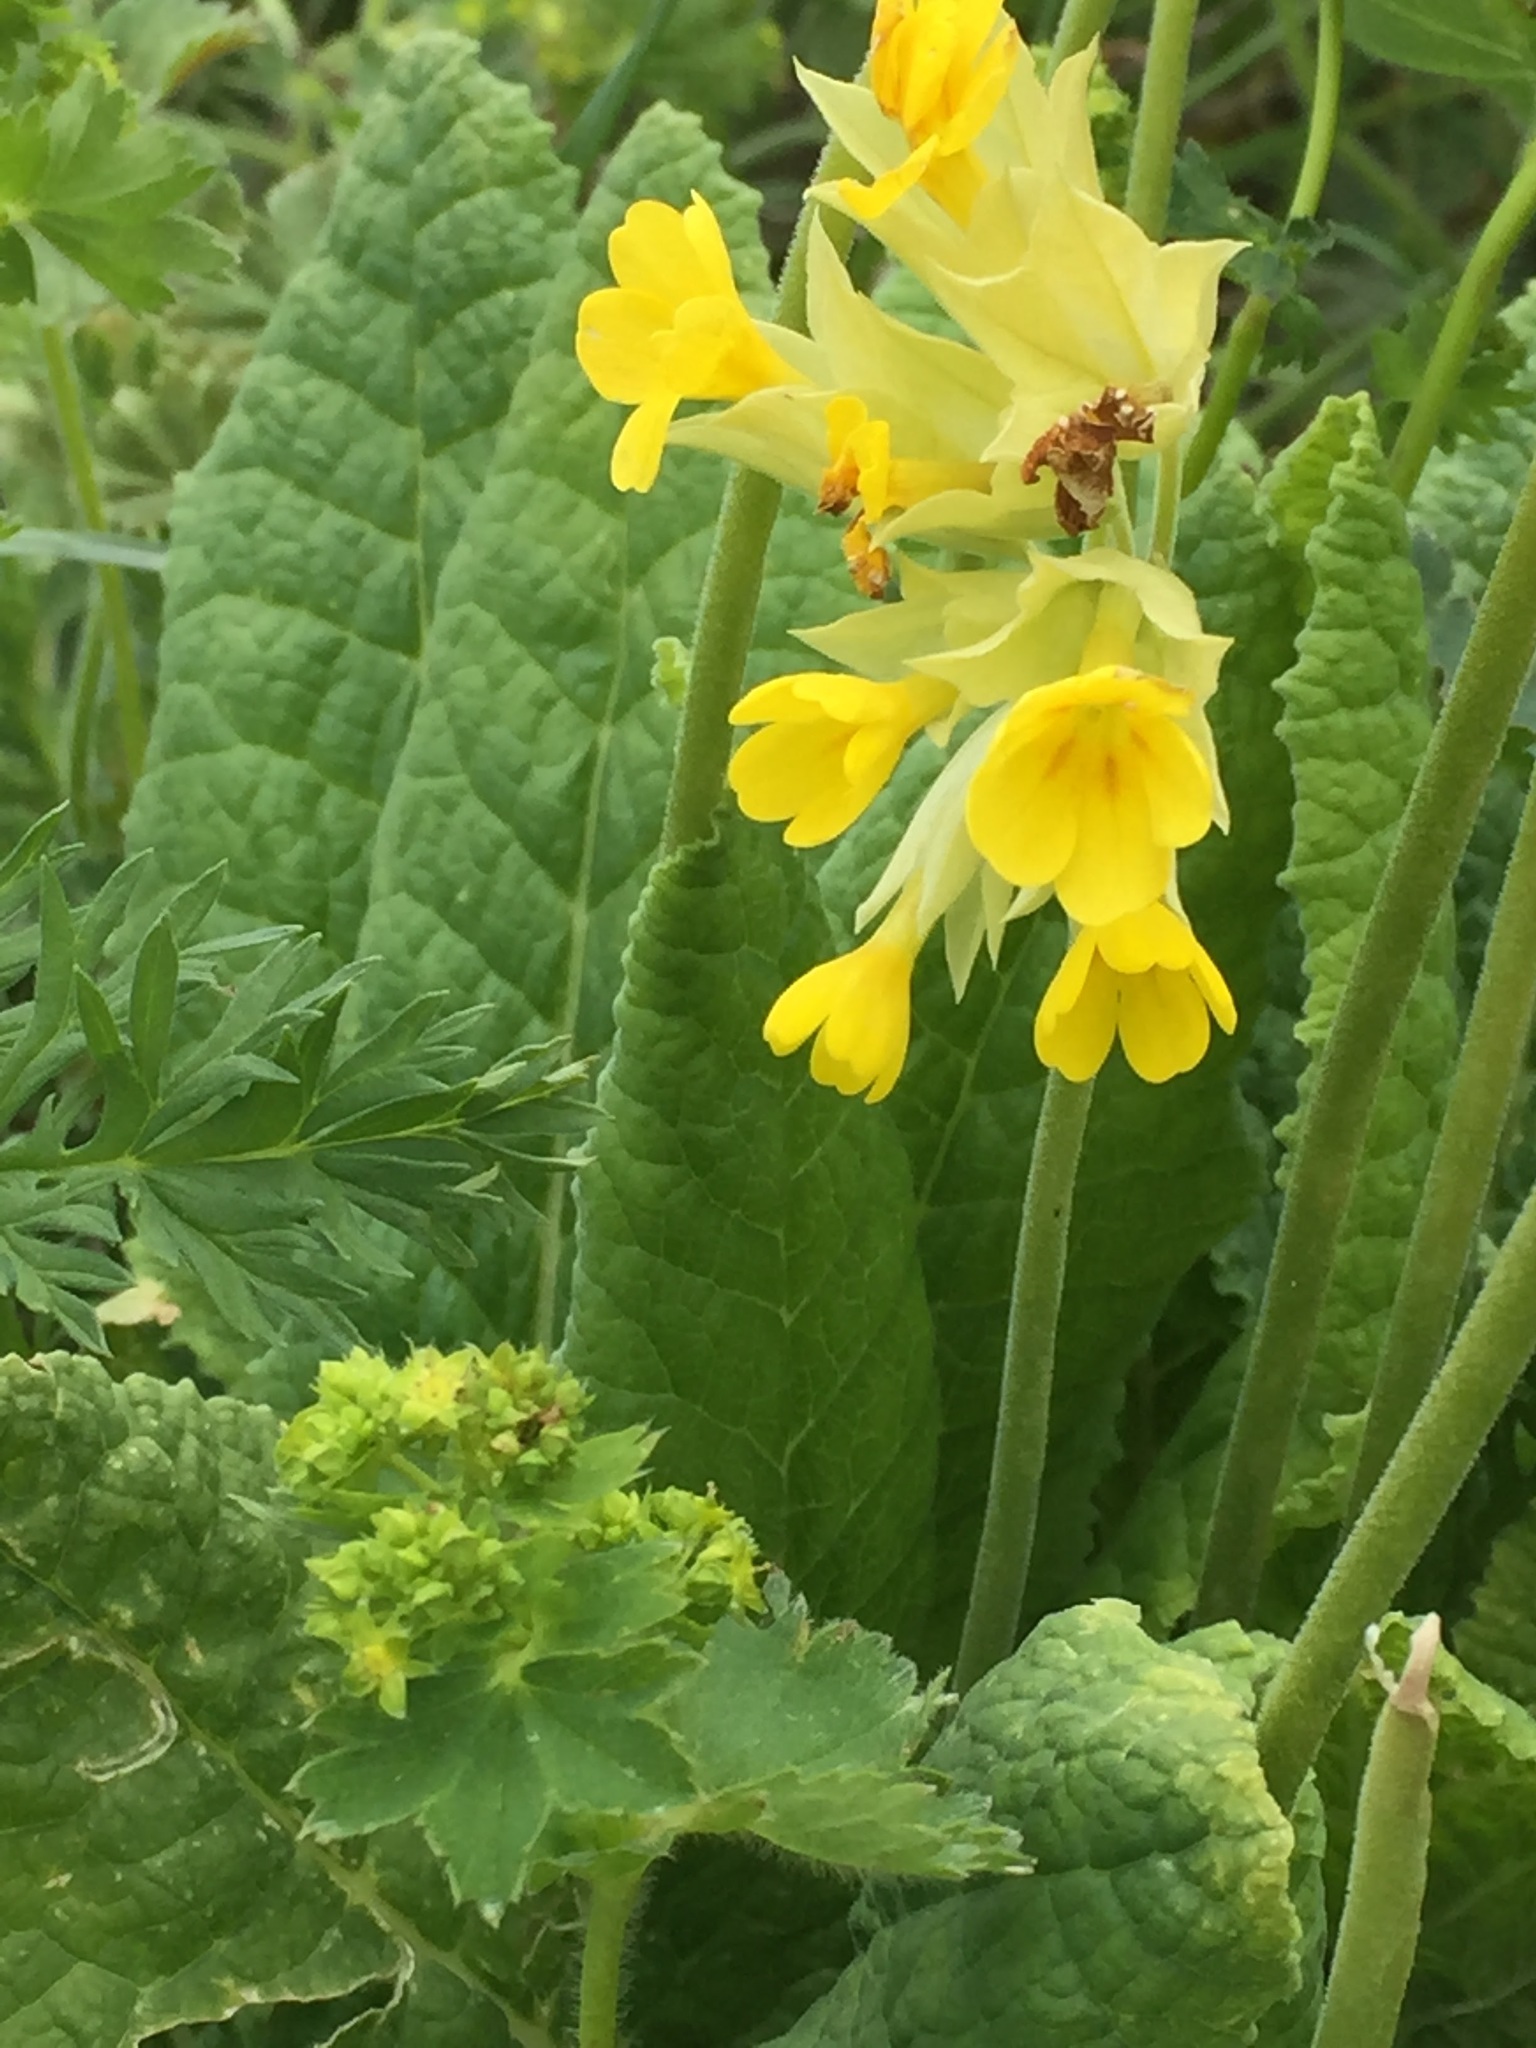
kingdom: Plantae
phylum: Tracheophyta
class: Magnoliopsida
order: Ericales
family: Primulaceae
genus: Primula
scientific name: Primula veris
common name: Cowslip
